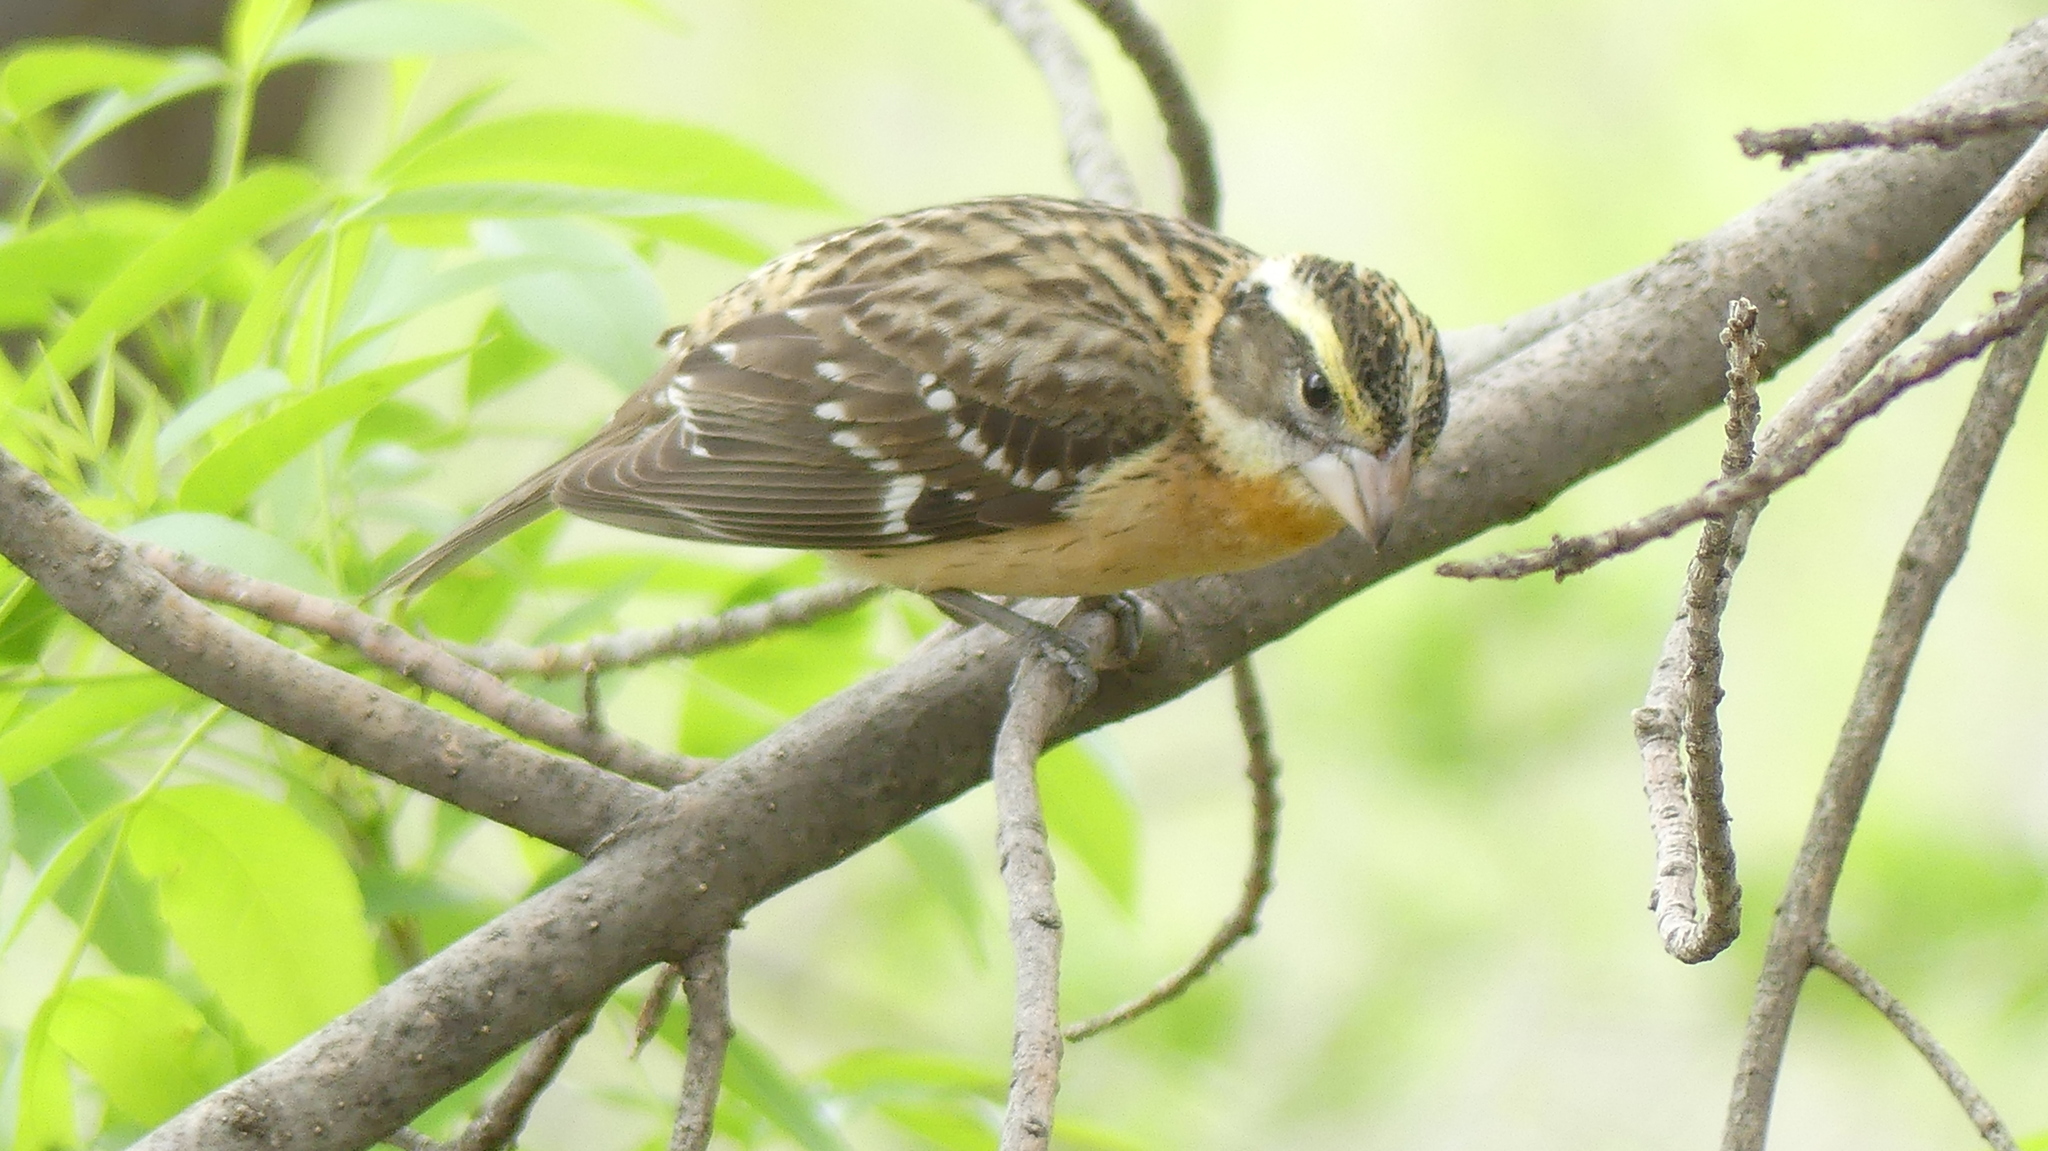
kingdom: Animalia
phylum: Chordata
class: Aves
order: Passeriformes
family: Cardinalidae
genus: Pheucticus
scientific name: Pheucticus melanocephalus
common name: Black-headed grosbeak
